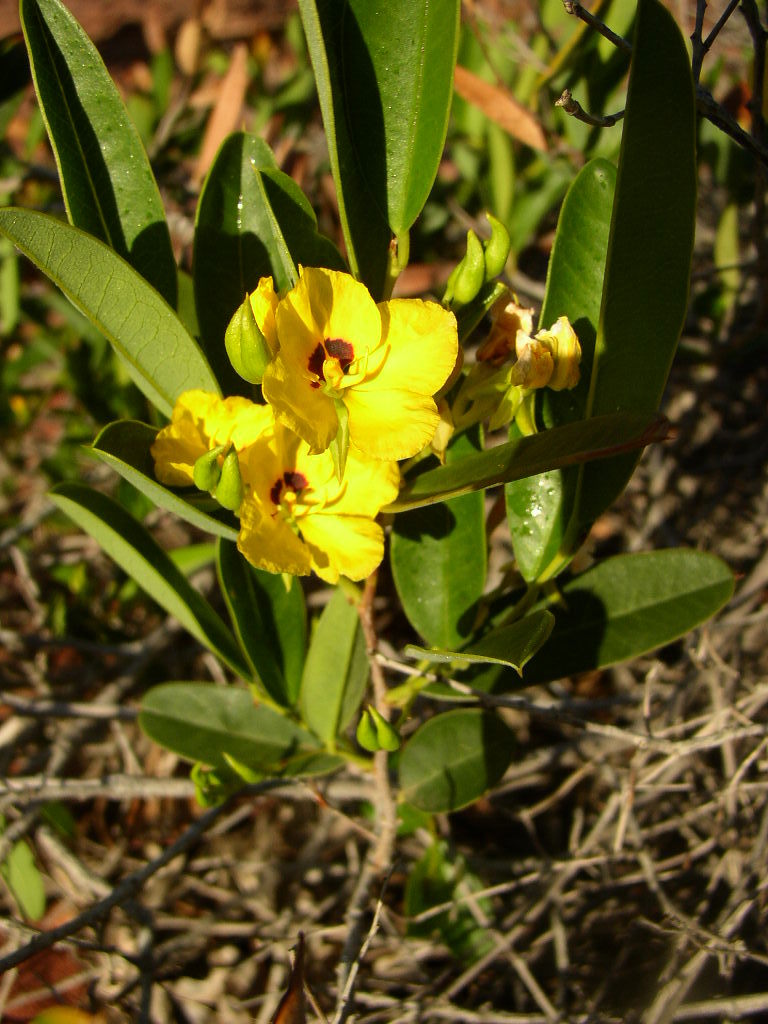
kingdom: Plantae
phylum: Tracheophyta
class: Magnoliopsida
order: Fabales
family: Fabaceae
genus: Labichea
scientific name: Labichea lanceolata
